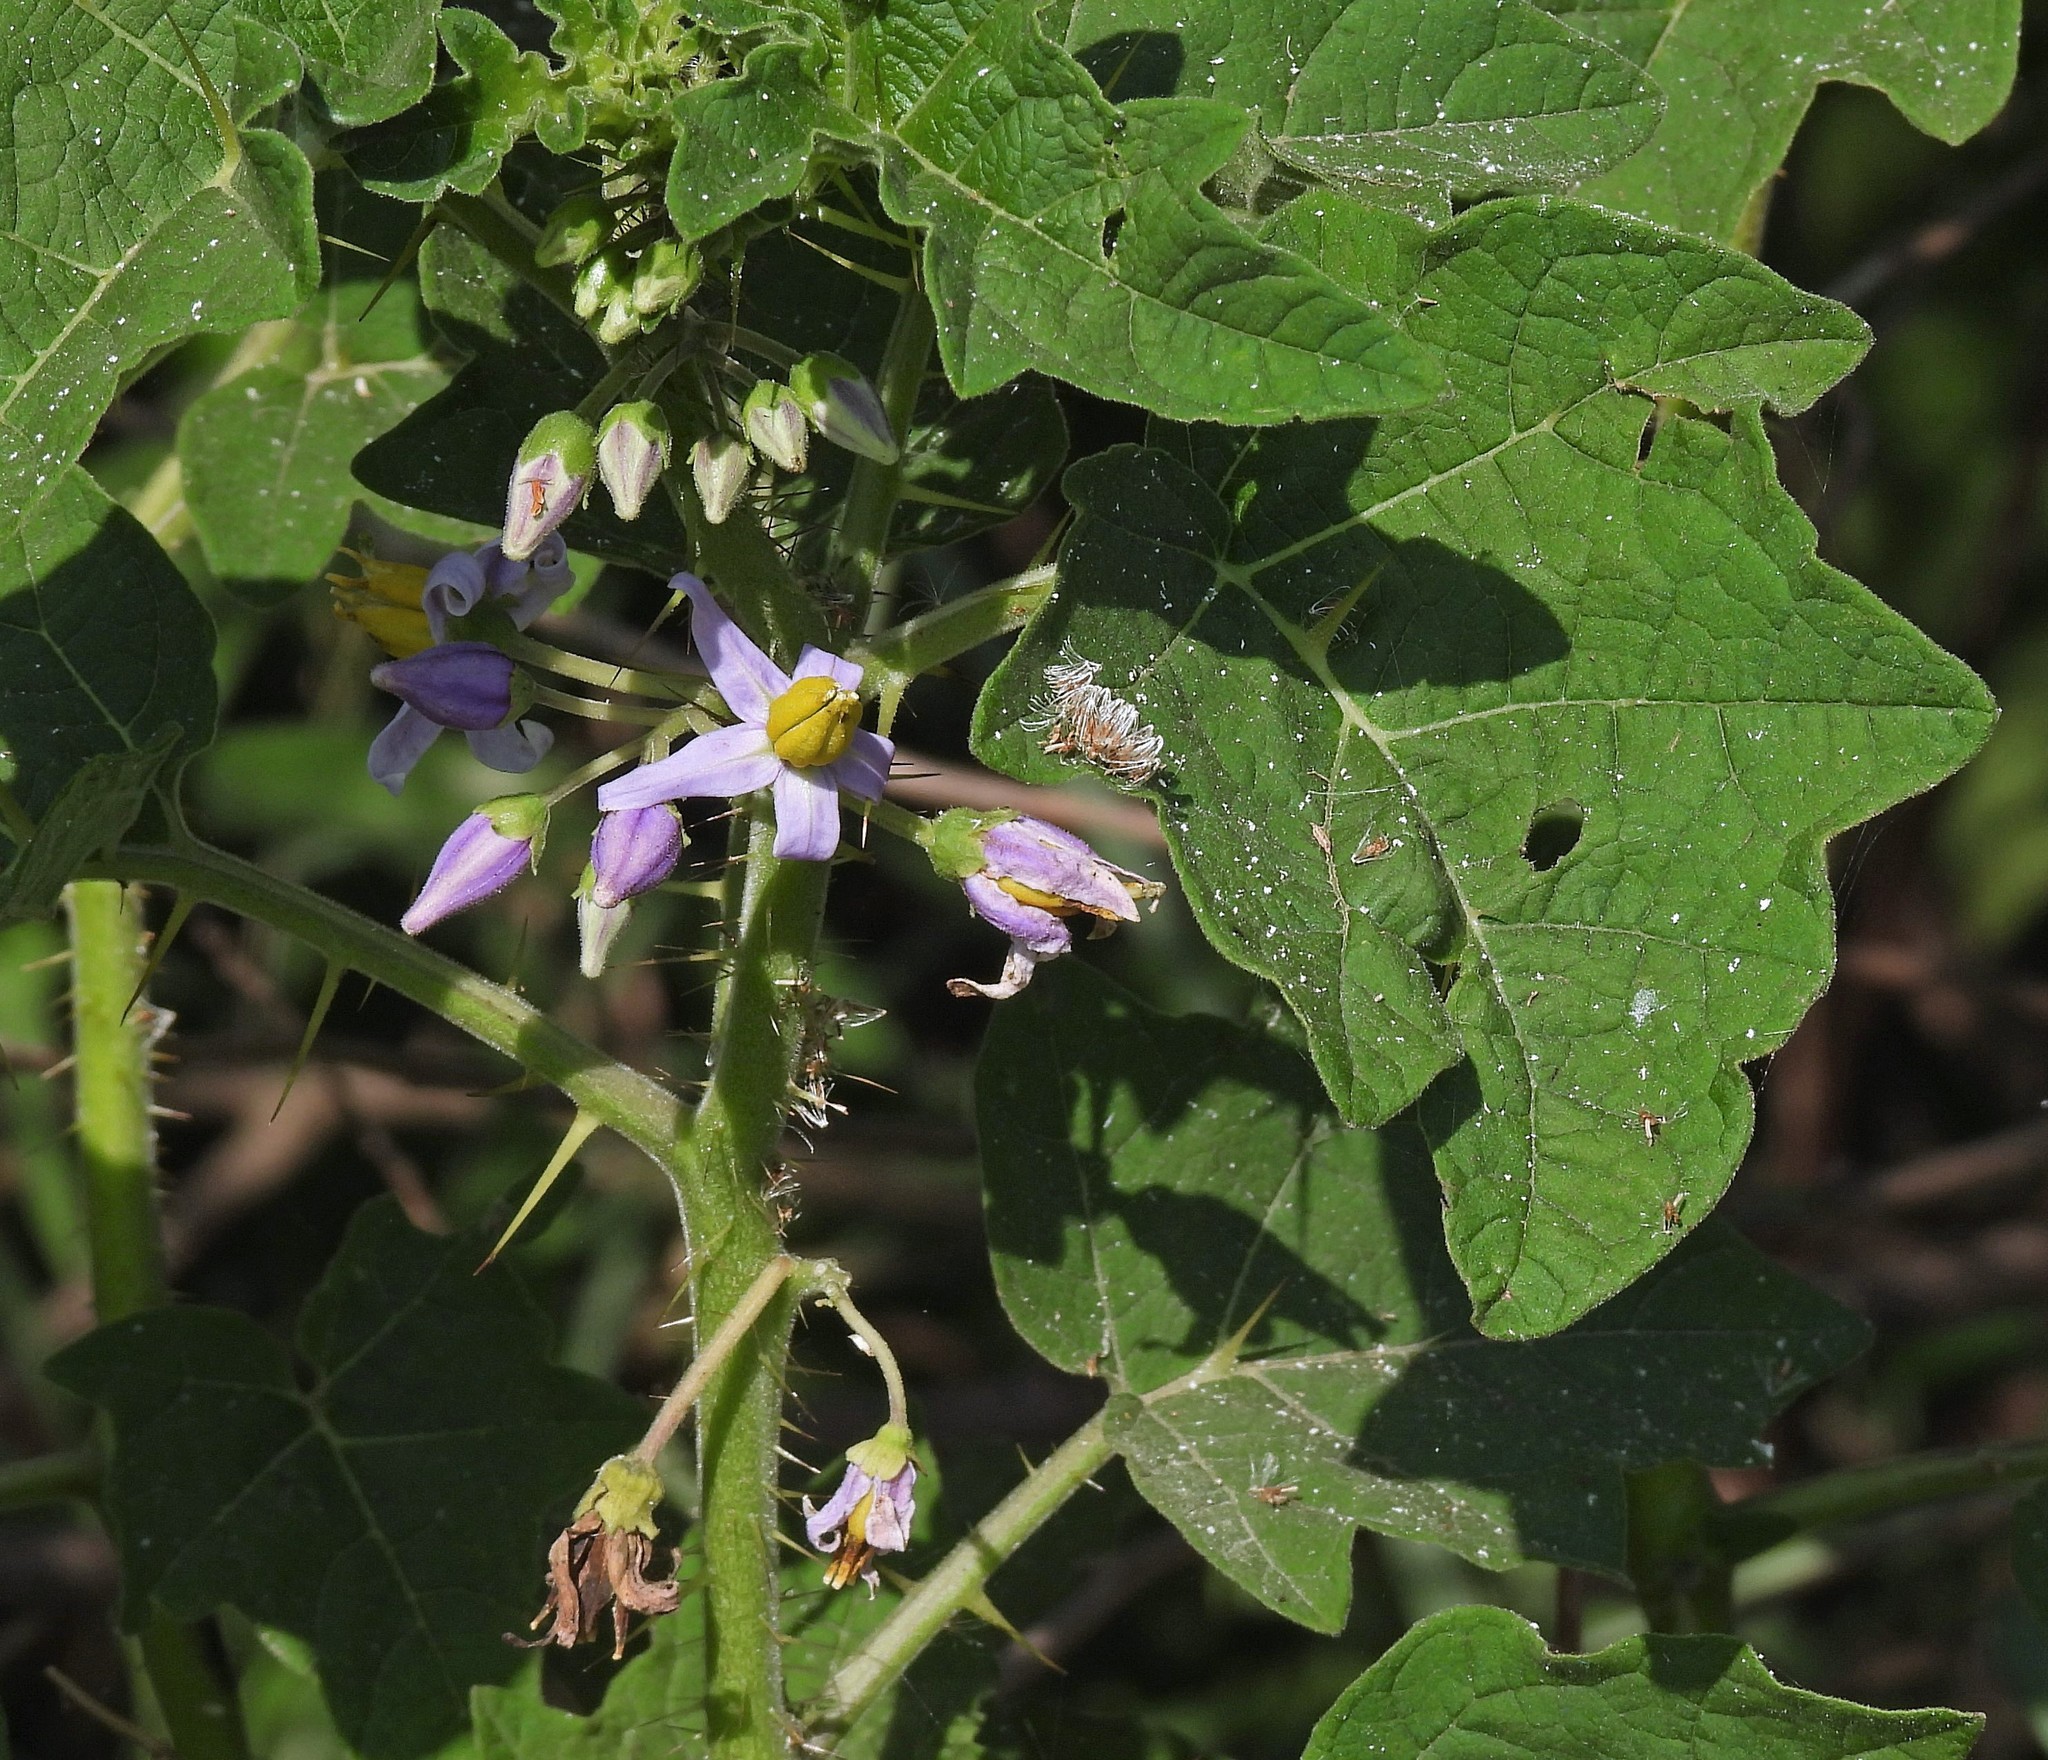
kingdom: Plantae
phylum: Tracheophyta
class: Magnoliopsida
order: Solanales
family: Solanaceae
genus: Solanum
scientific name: Solanum palinacanthum
